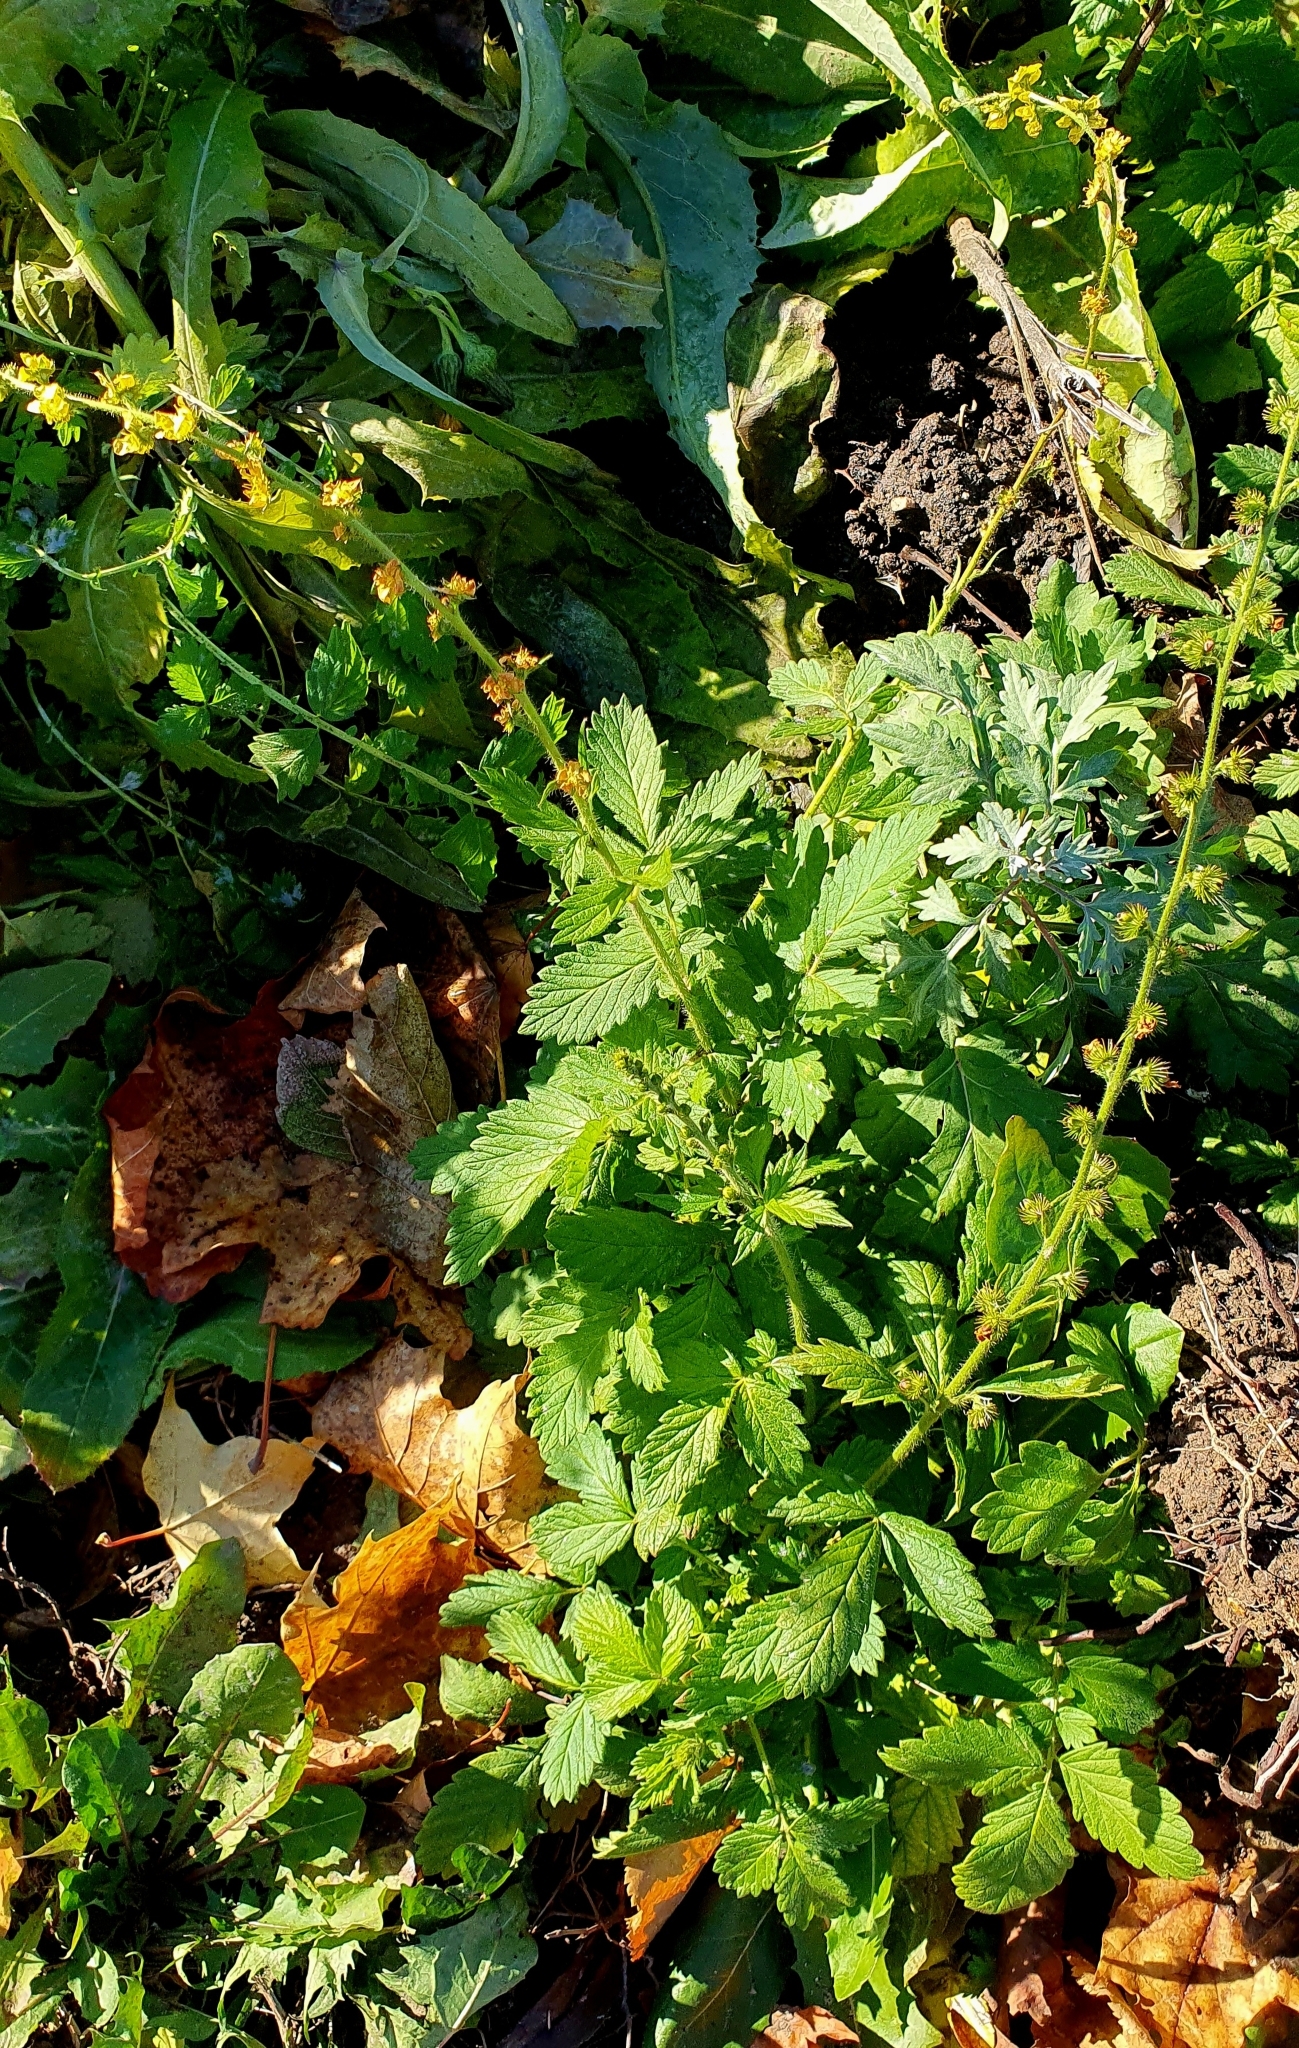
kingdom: Plantae
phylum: Tracheophyta
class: Magnoliopsida
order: Rosales
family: Rosaceae
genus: Agrimonia
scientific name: Agrimonia eupatoria
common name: Agrimony
